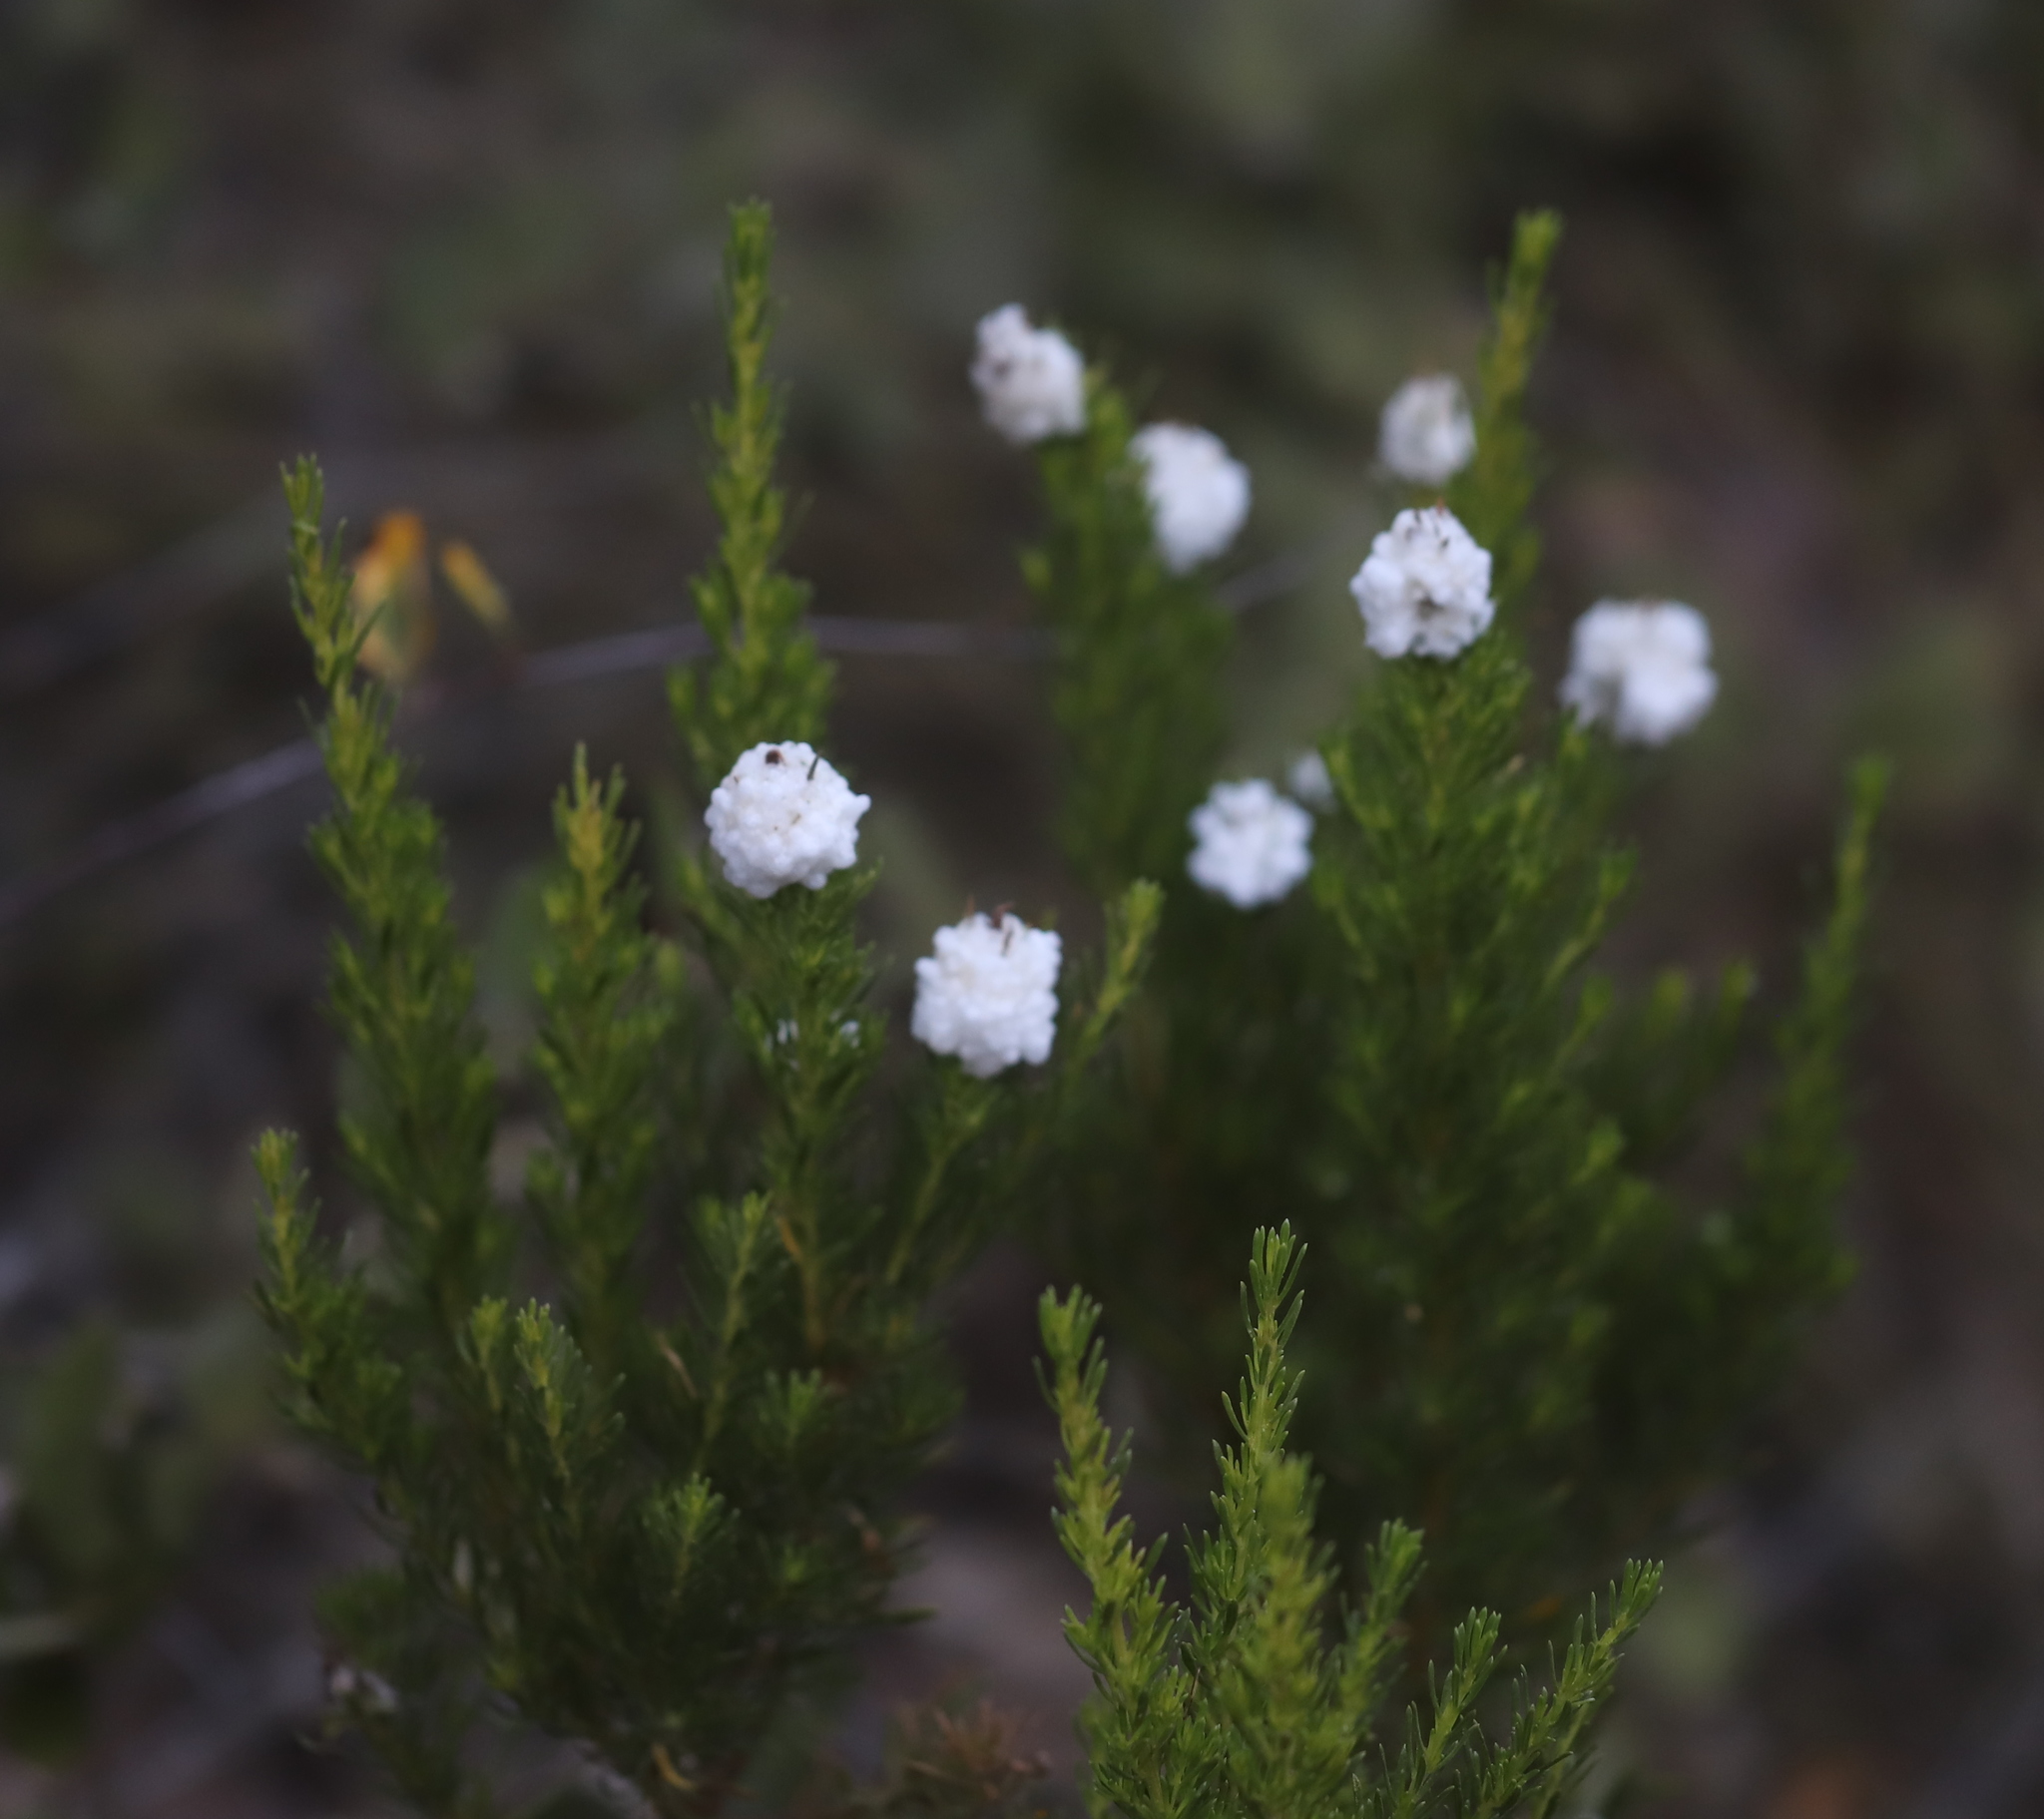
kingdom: Animalia
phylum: Arthropoda
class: Insecta
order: Diptera
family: Tephritidae
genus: Rachiptera
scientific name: Rachiptera limbata
